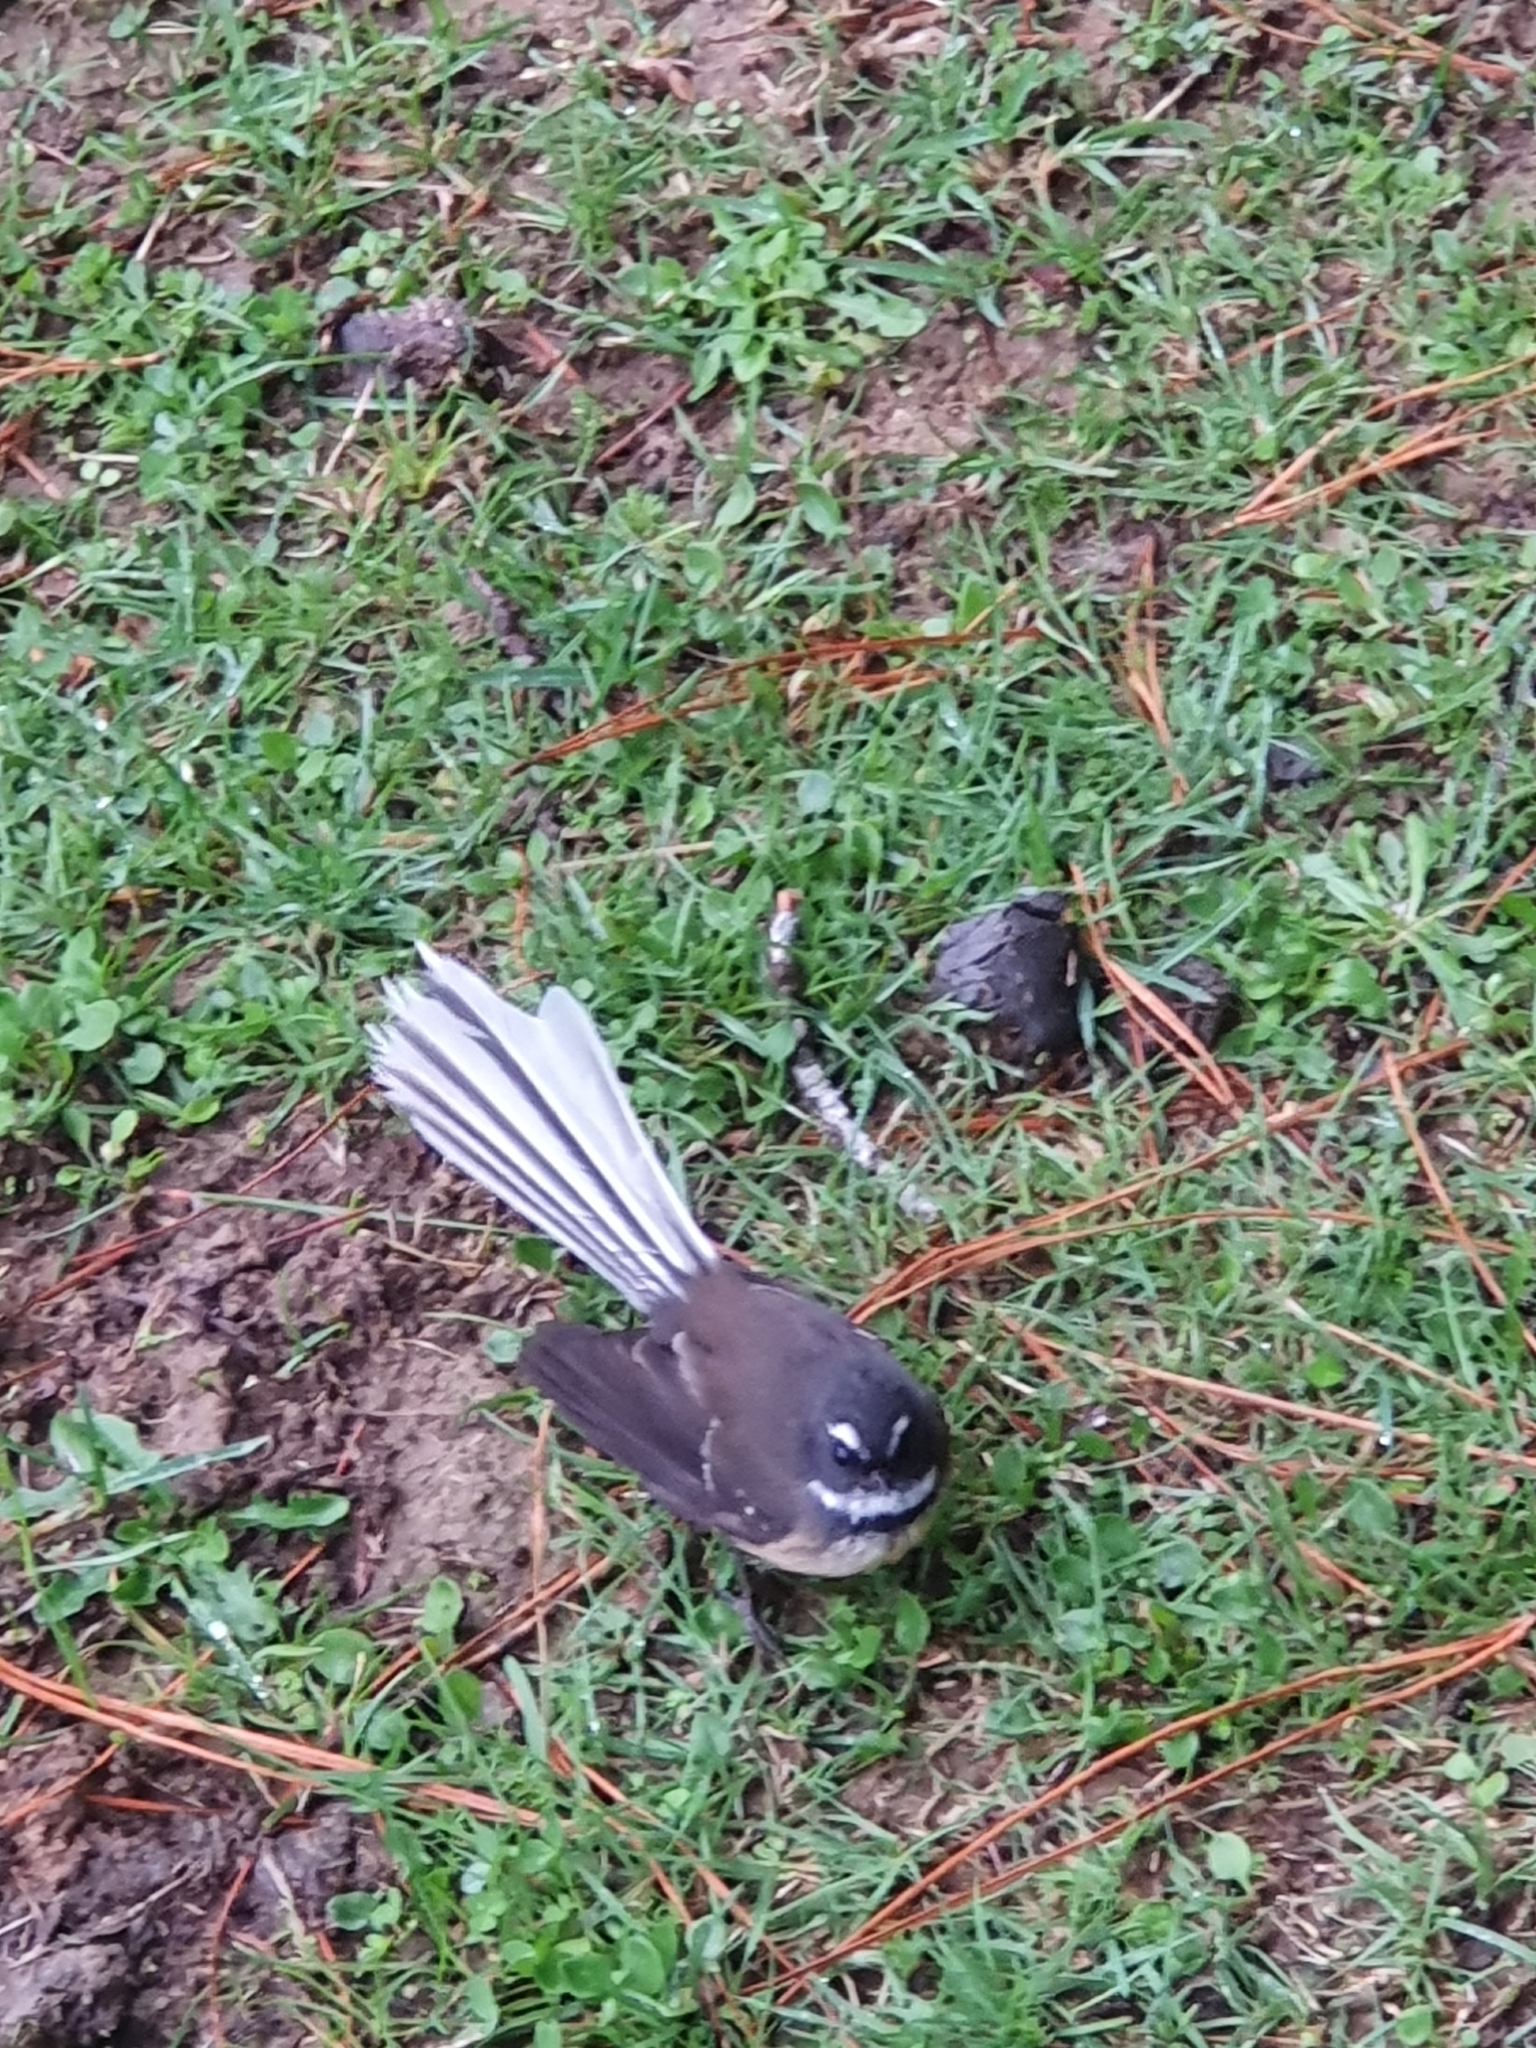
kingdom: Animalia
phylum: Chordata
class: Aves
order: Passeriformes
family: Rhipiduridae
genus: Rhipidura
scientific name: Rhipidura fuliginosa
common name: New zealand fantail
